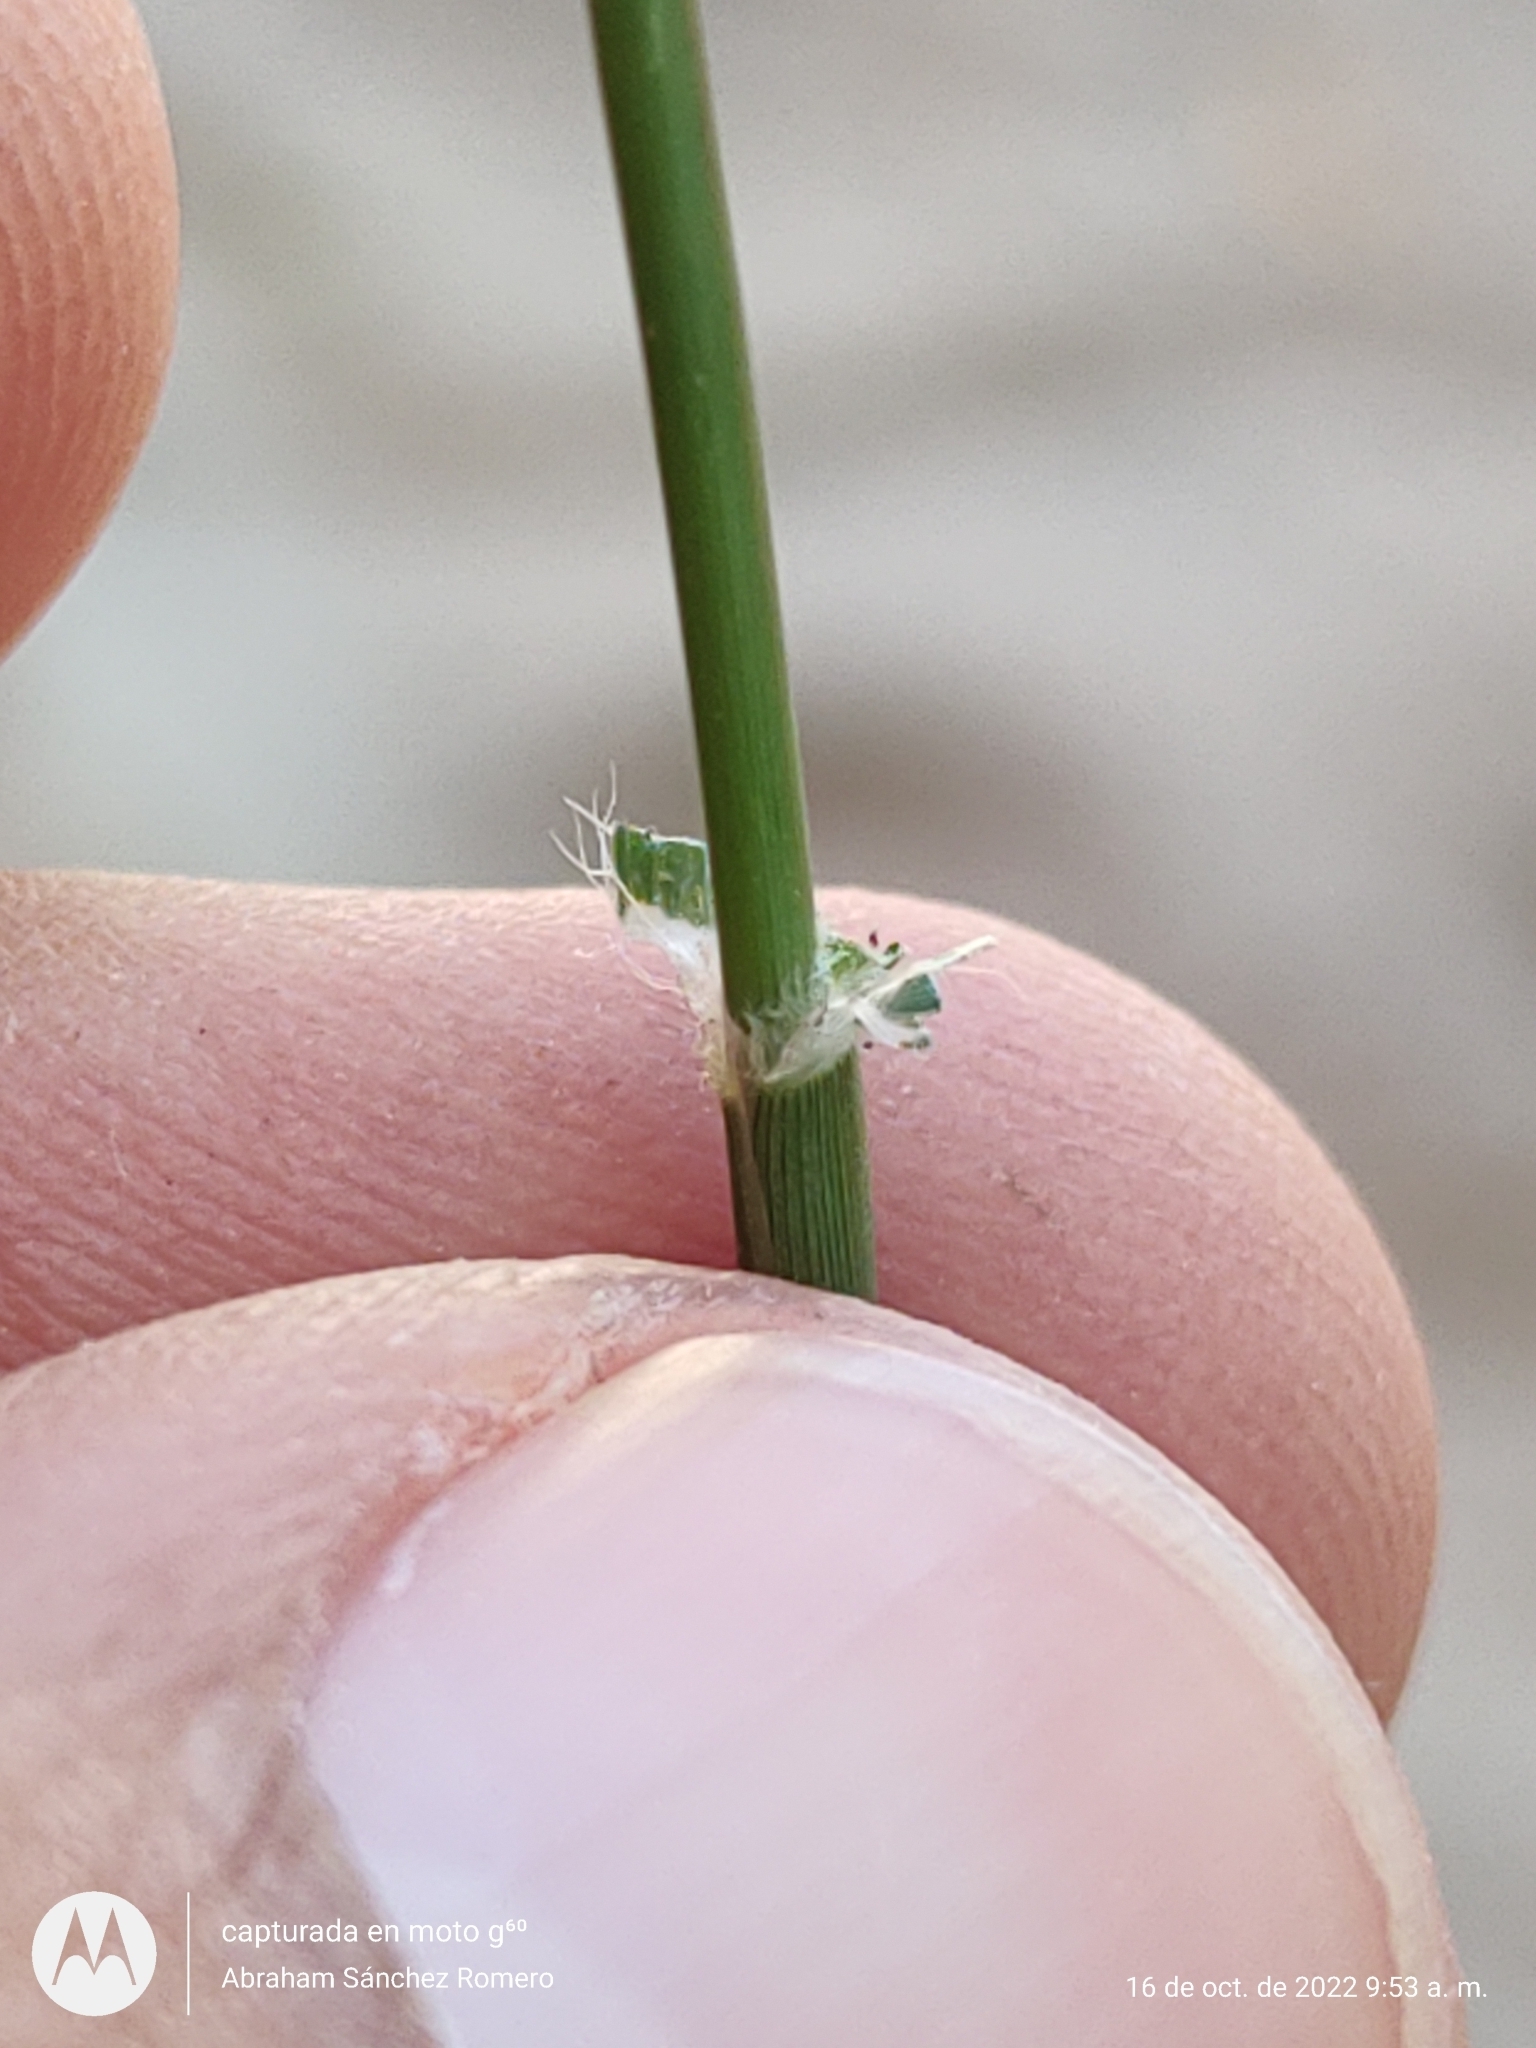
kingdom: Plantae
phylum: Tracheophyta
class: Liliopsida
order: Poales
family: Poaceae
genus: Dactyloctenium
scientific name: Dactyloctenium aegyptium
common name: Egyptian grass
